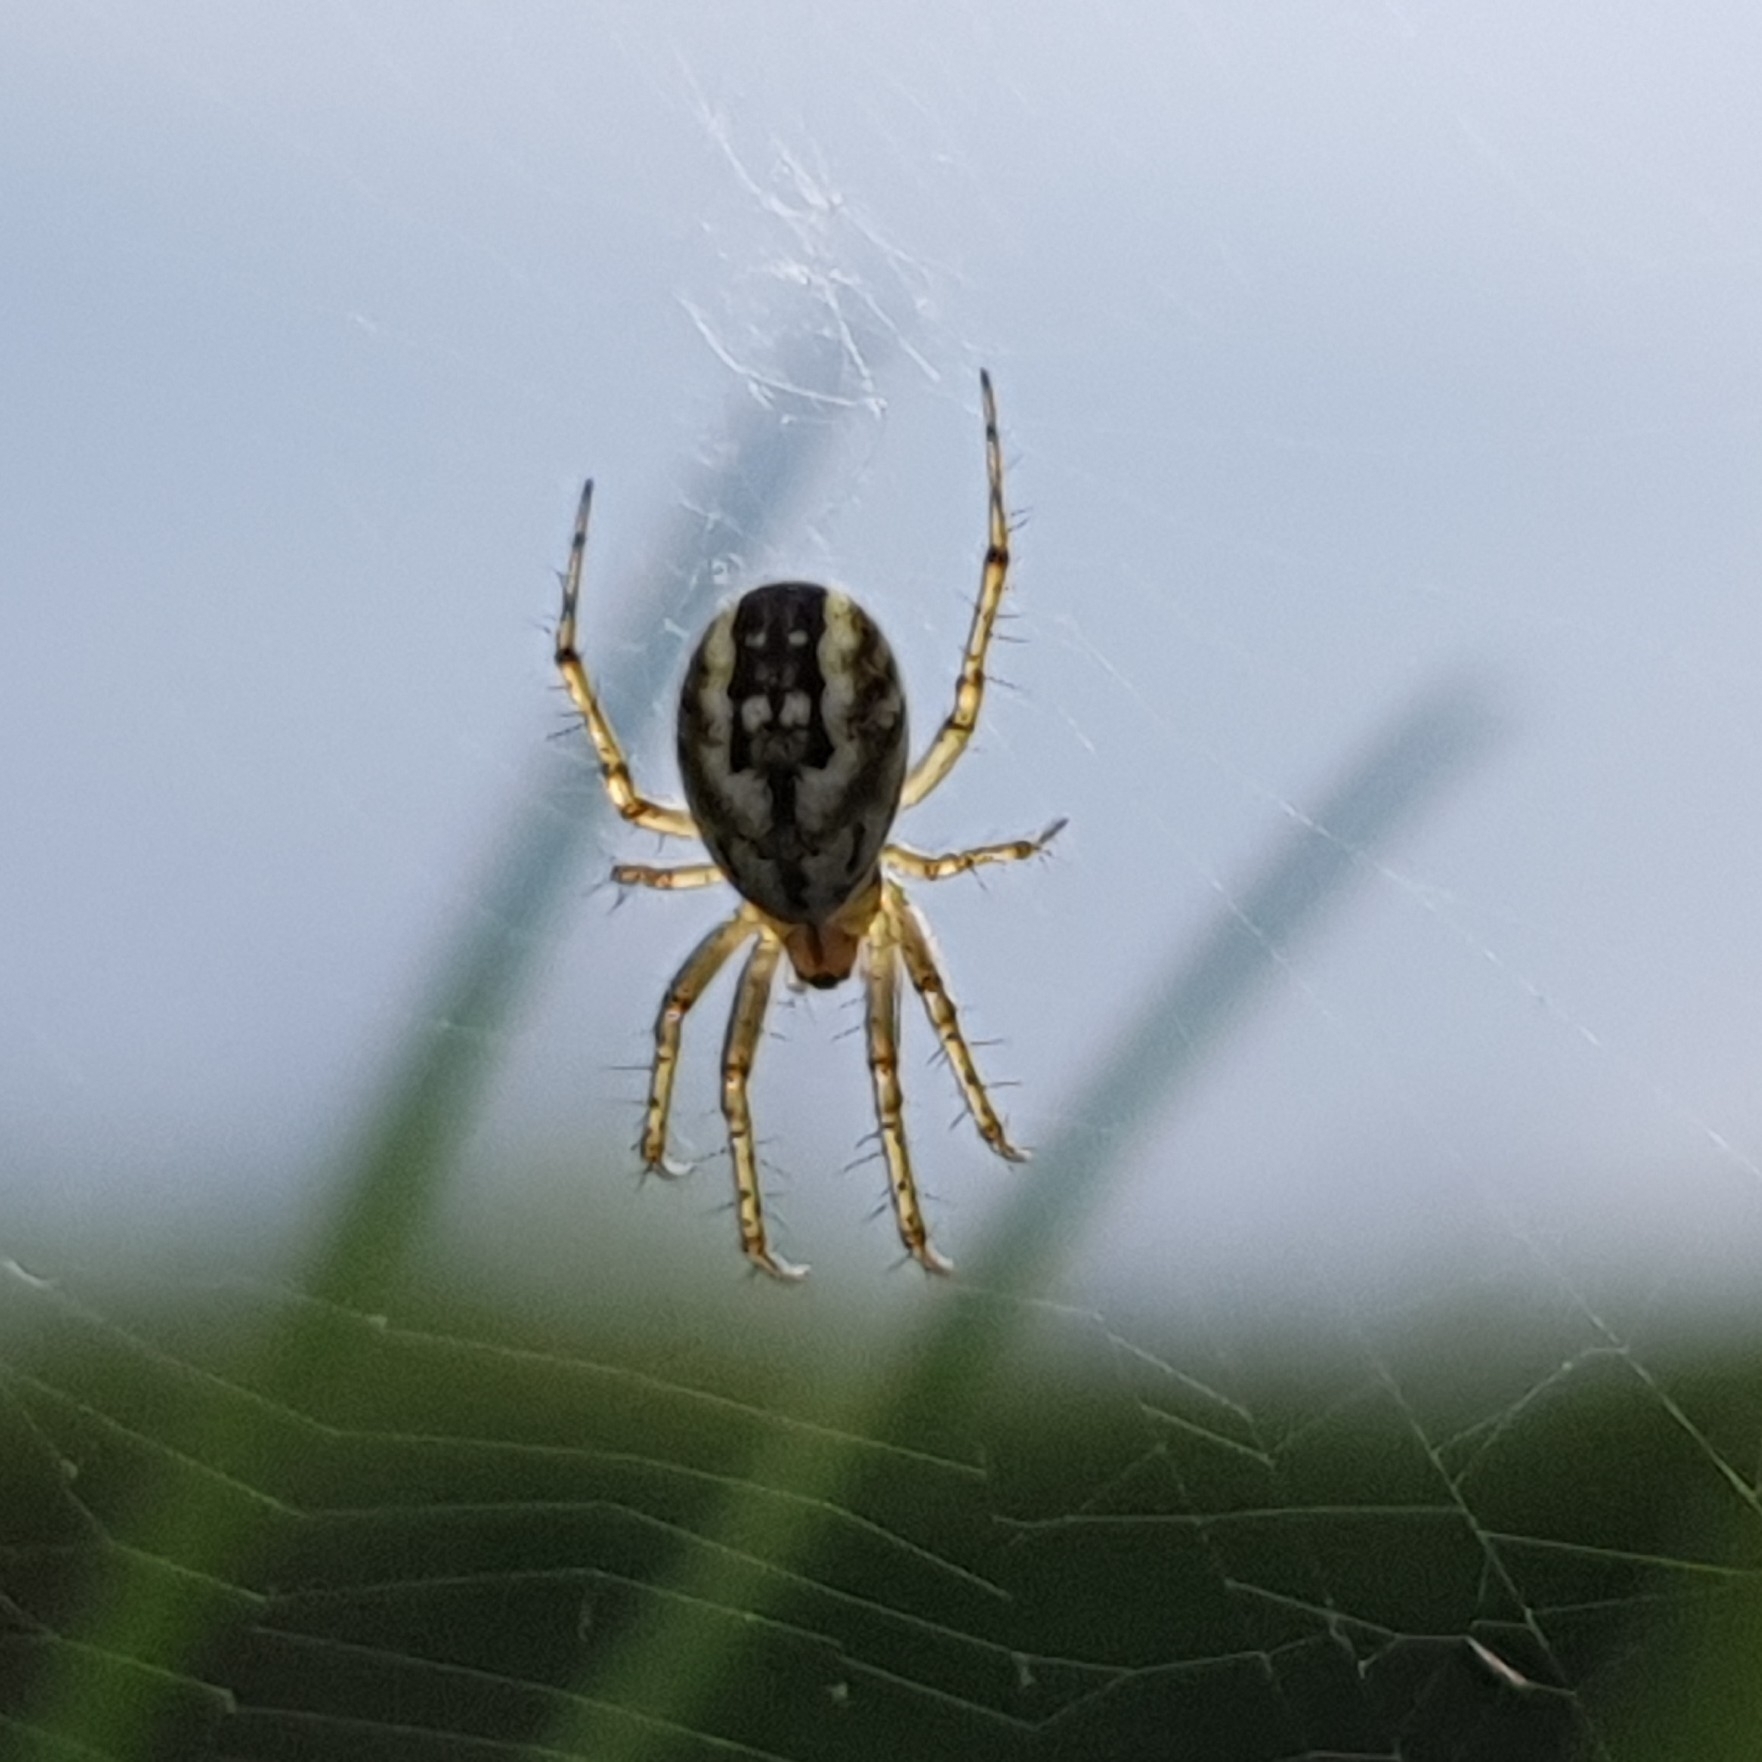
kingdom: Animalia
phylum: Arthropoda
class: Arachnida
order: Araneae
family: Araneidae
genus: Mangora
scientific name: Mangora acalypha
